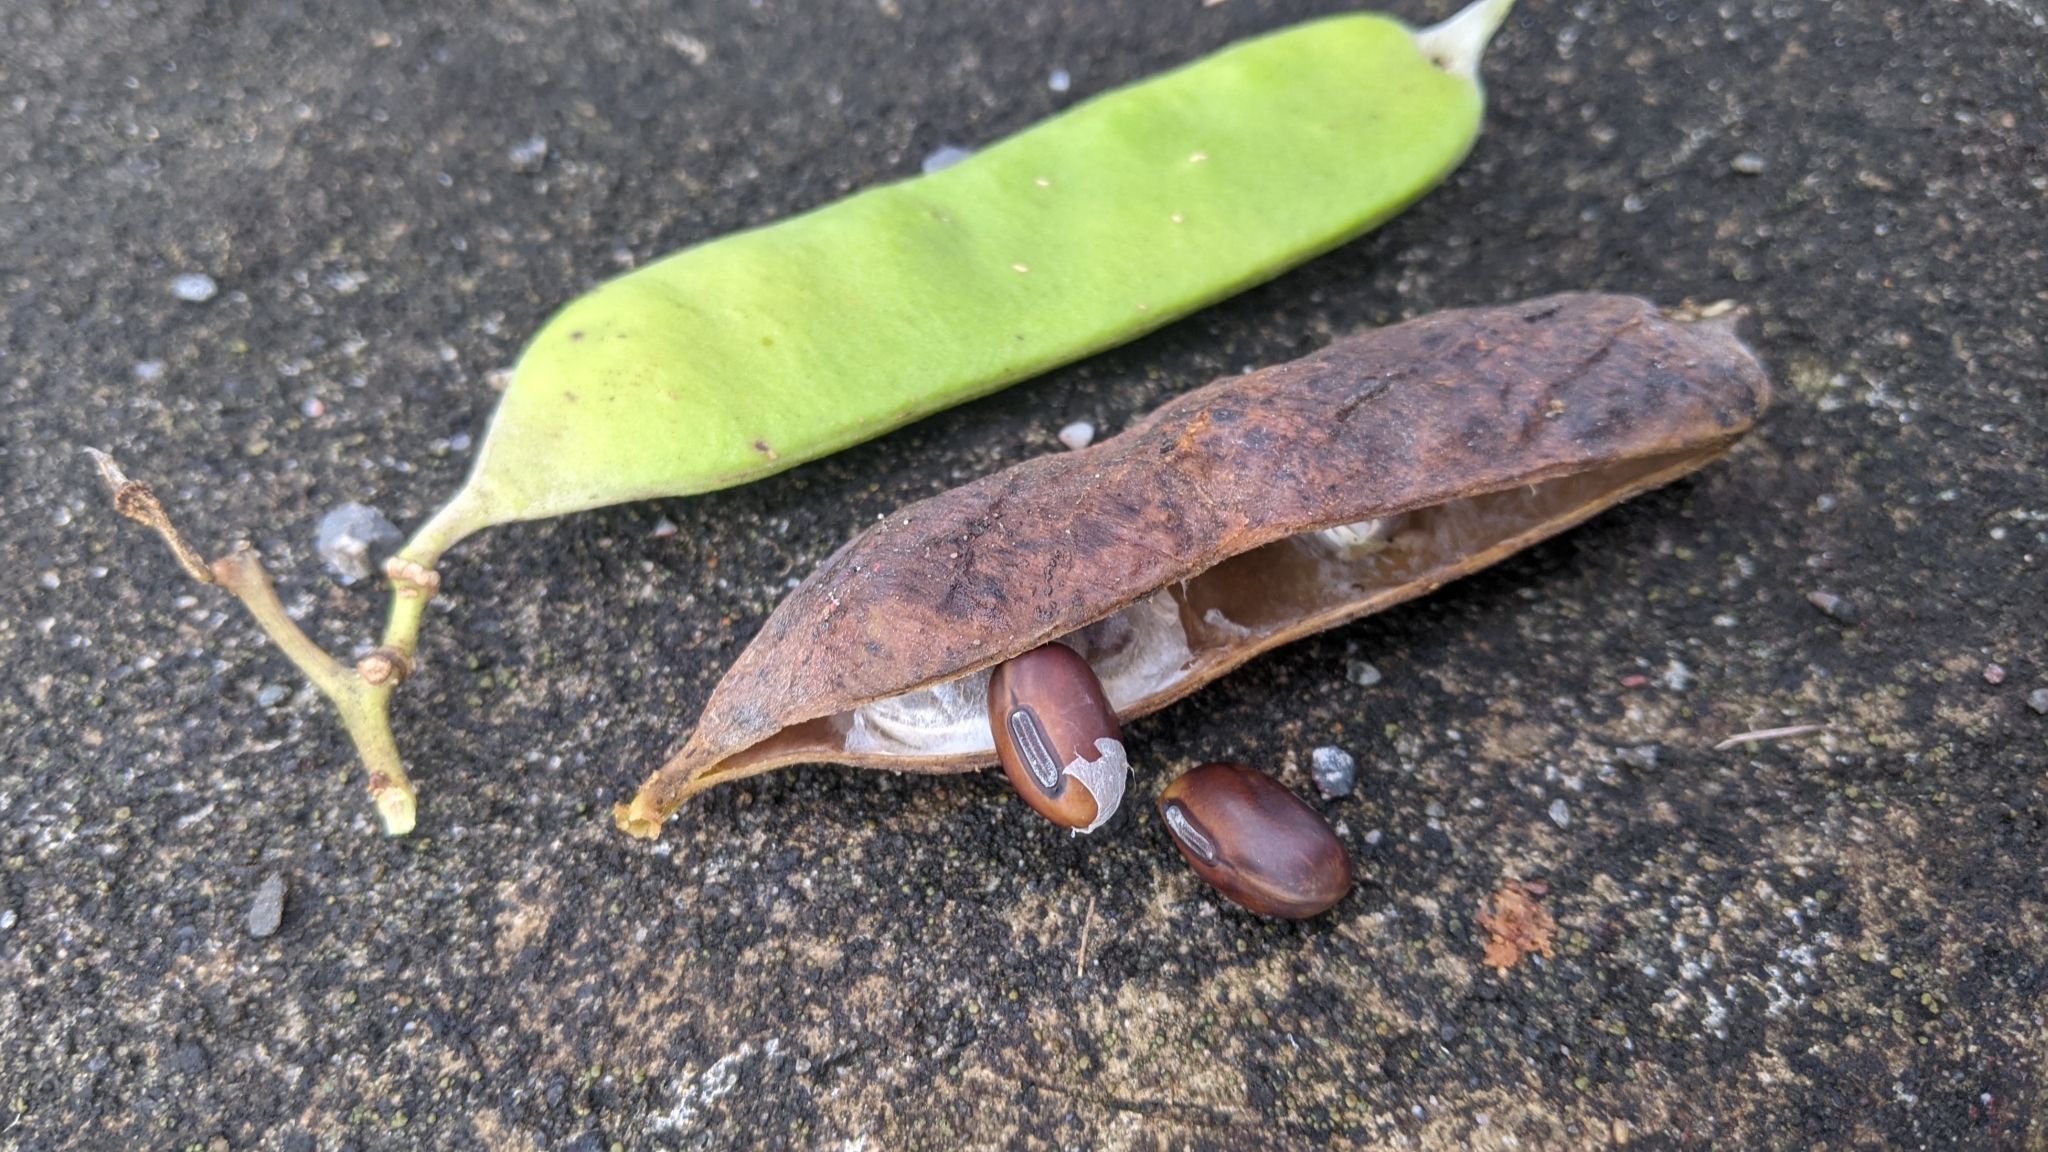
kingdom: Plantae
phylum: Tracheophyta
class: Magnoliopsida
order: Fabales
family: Fabaceae
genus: Canavalia
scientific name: Canavalia rosea
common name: Beach-bean
